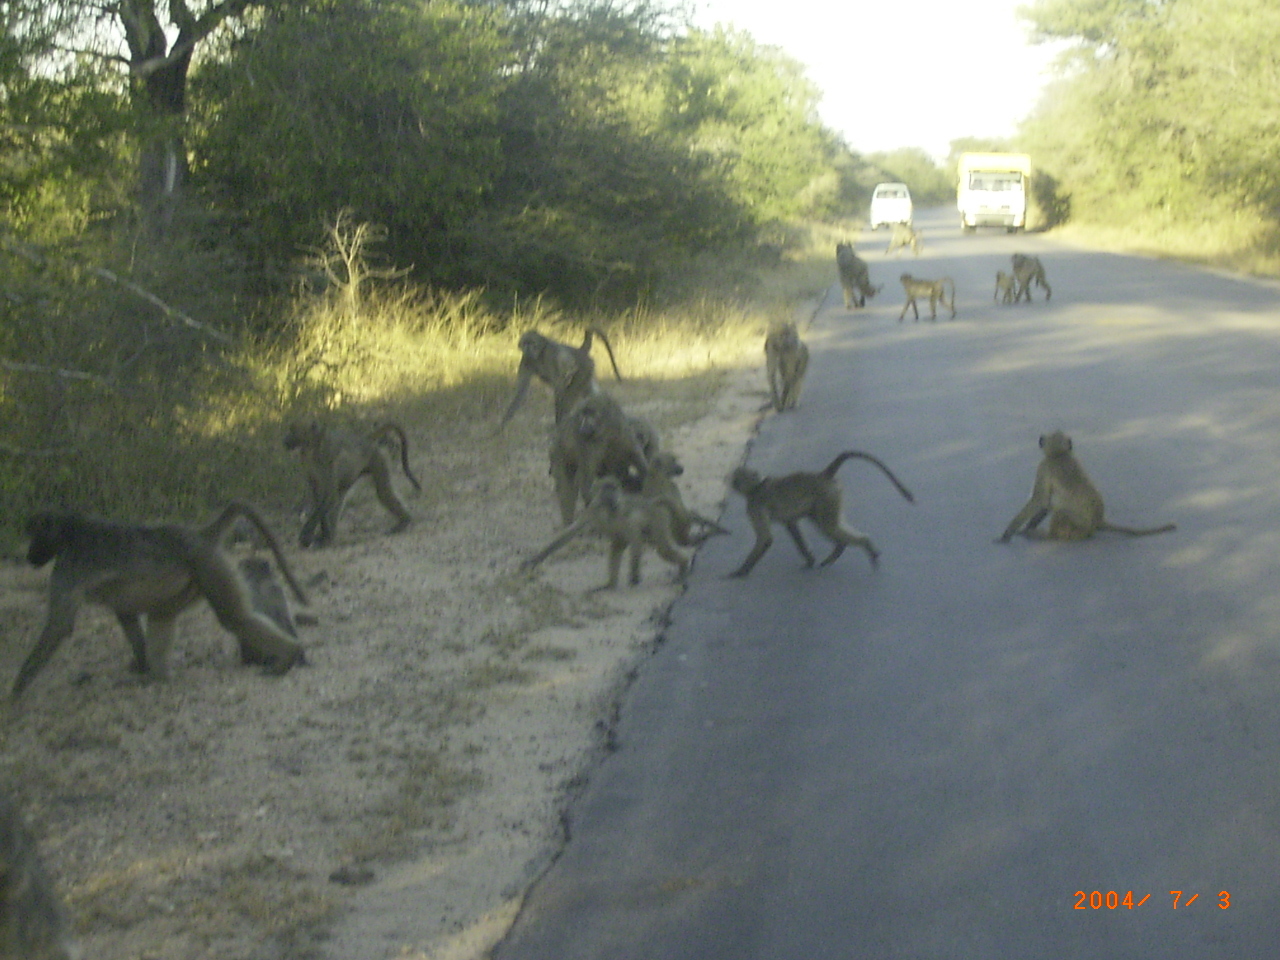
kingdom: Animalia
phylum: Chordata
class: Mammalia
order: Primates
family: Cercopithecidae
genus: Papio
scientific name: Papio ursinus
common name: Chacma baboon
